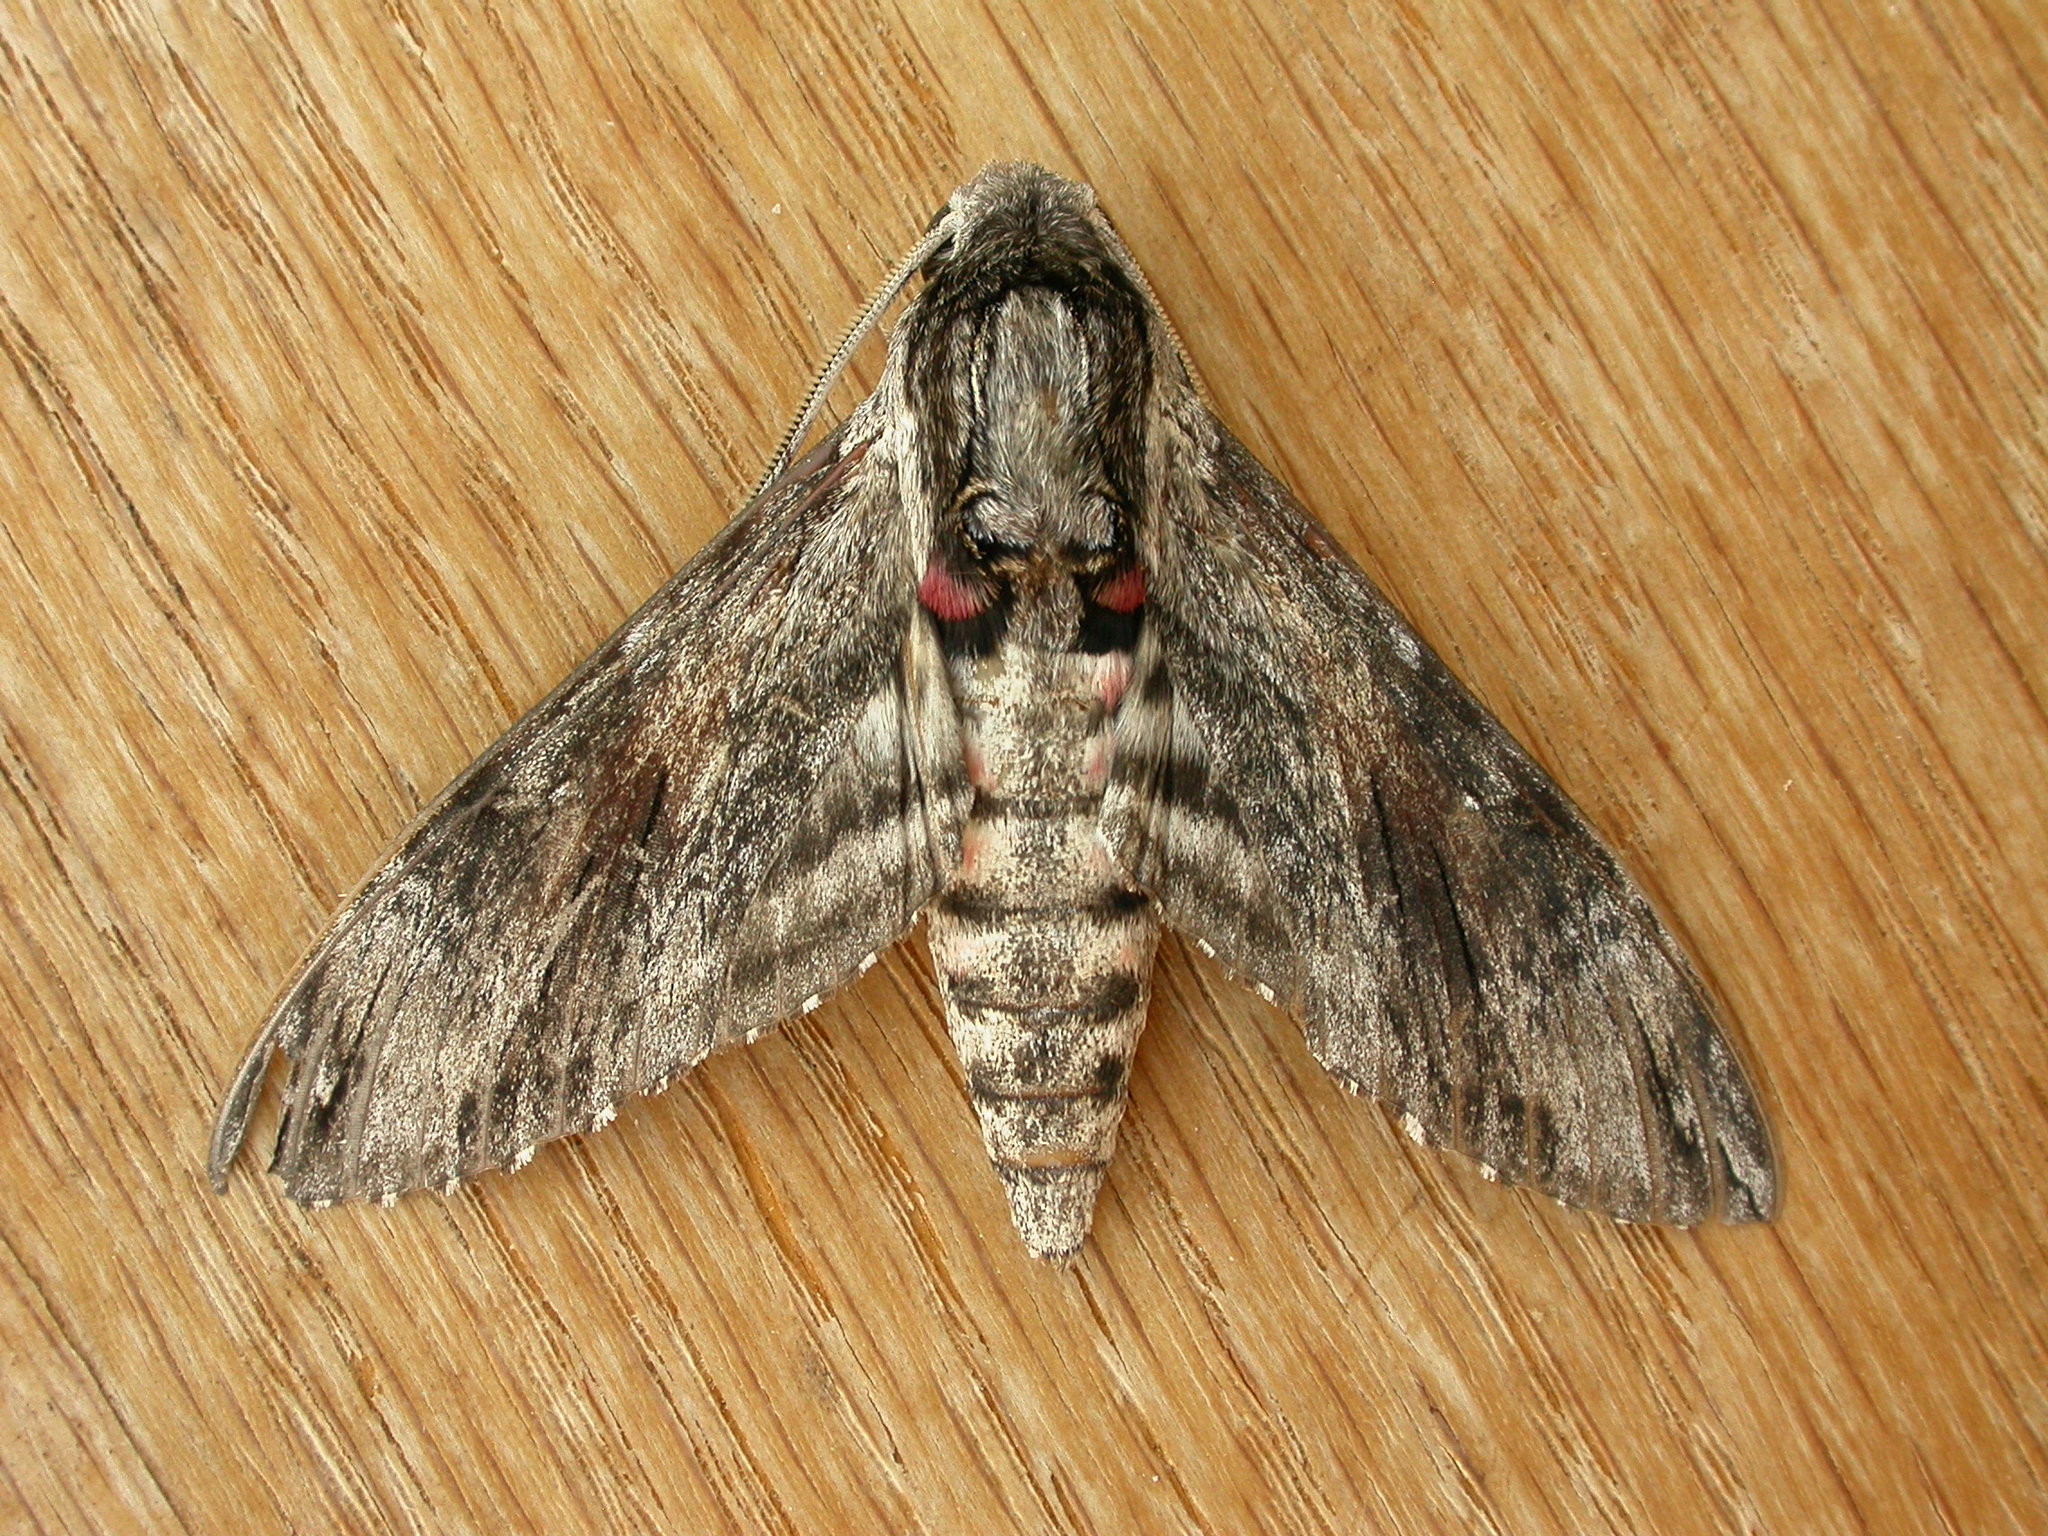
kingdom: Animalia
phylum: Arthropoda
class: Insecta
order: Lepidoptera
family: Sphingidae
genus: Agrius
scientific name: Agrius convolvuli
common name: Convolvulus hawkmoth
